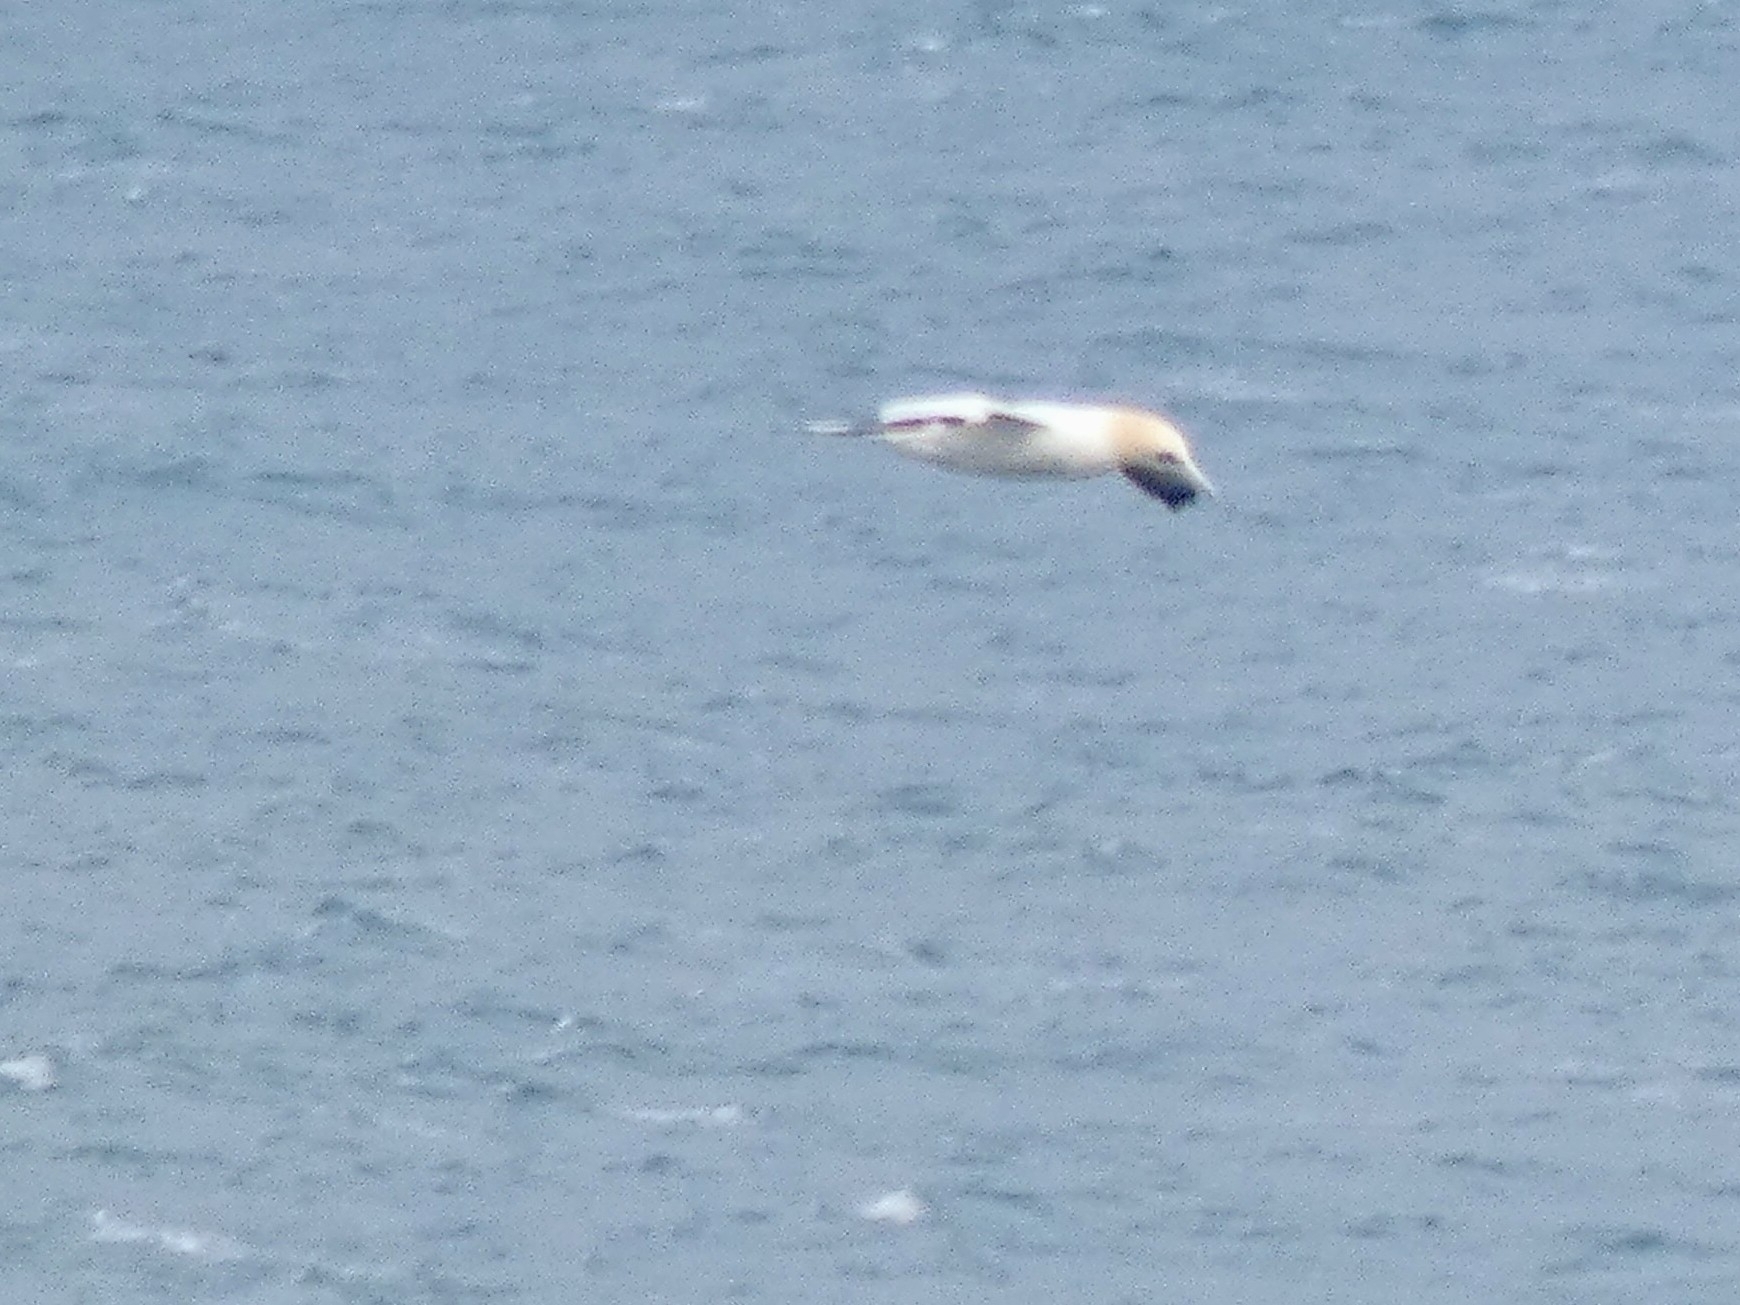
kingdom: Animalia
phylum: Chordata
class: Aves
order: Suliformes
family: Sulidae
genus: Morus
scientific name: Morus bassanus
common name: Northern gannet
